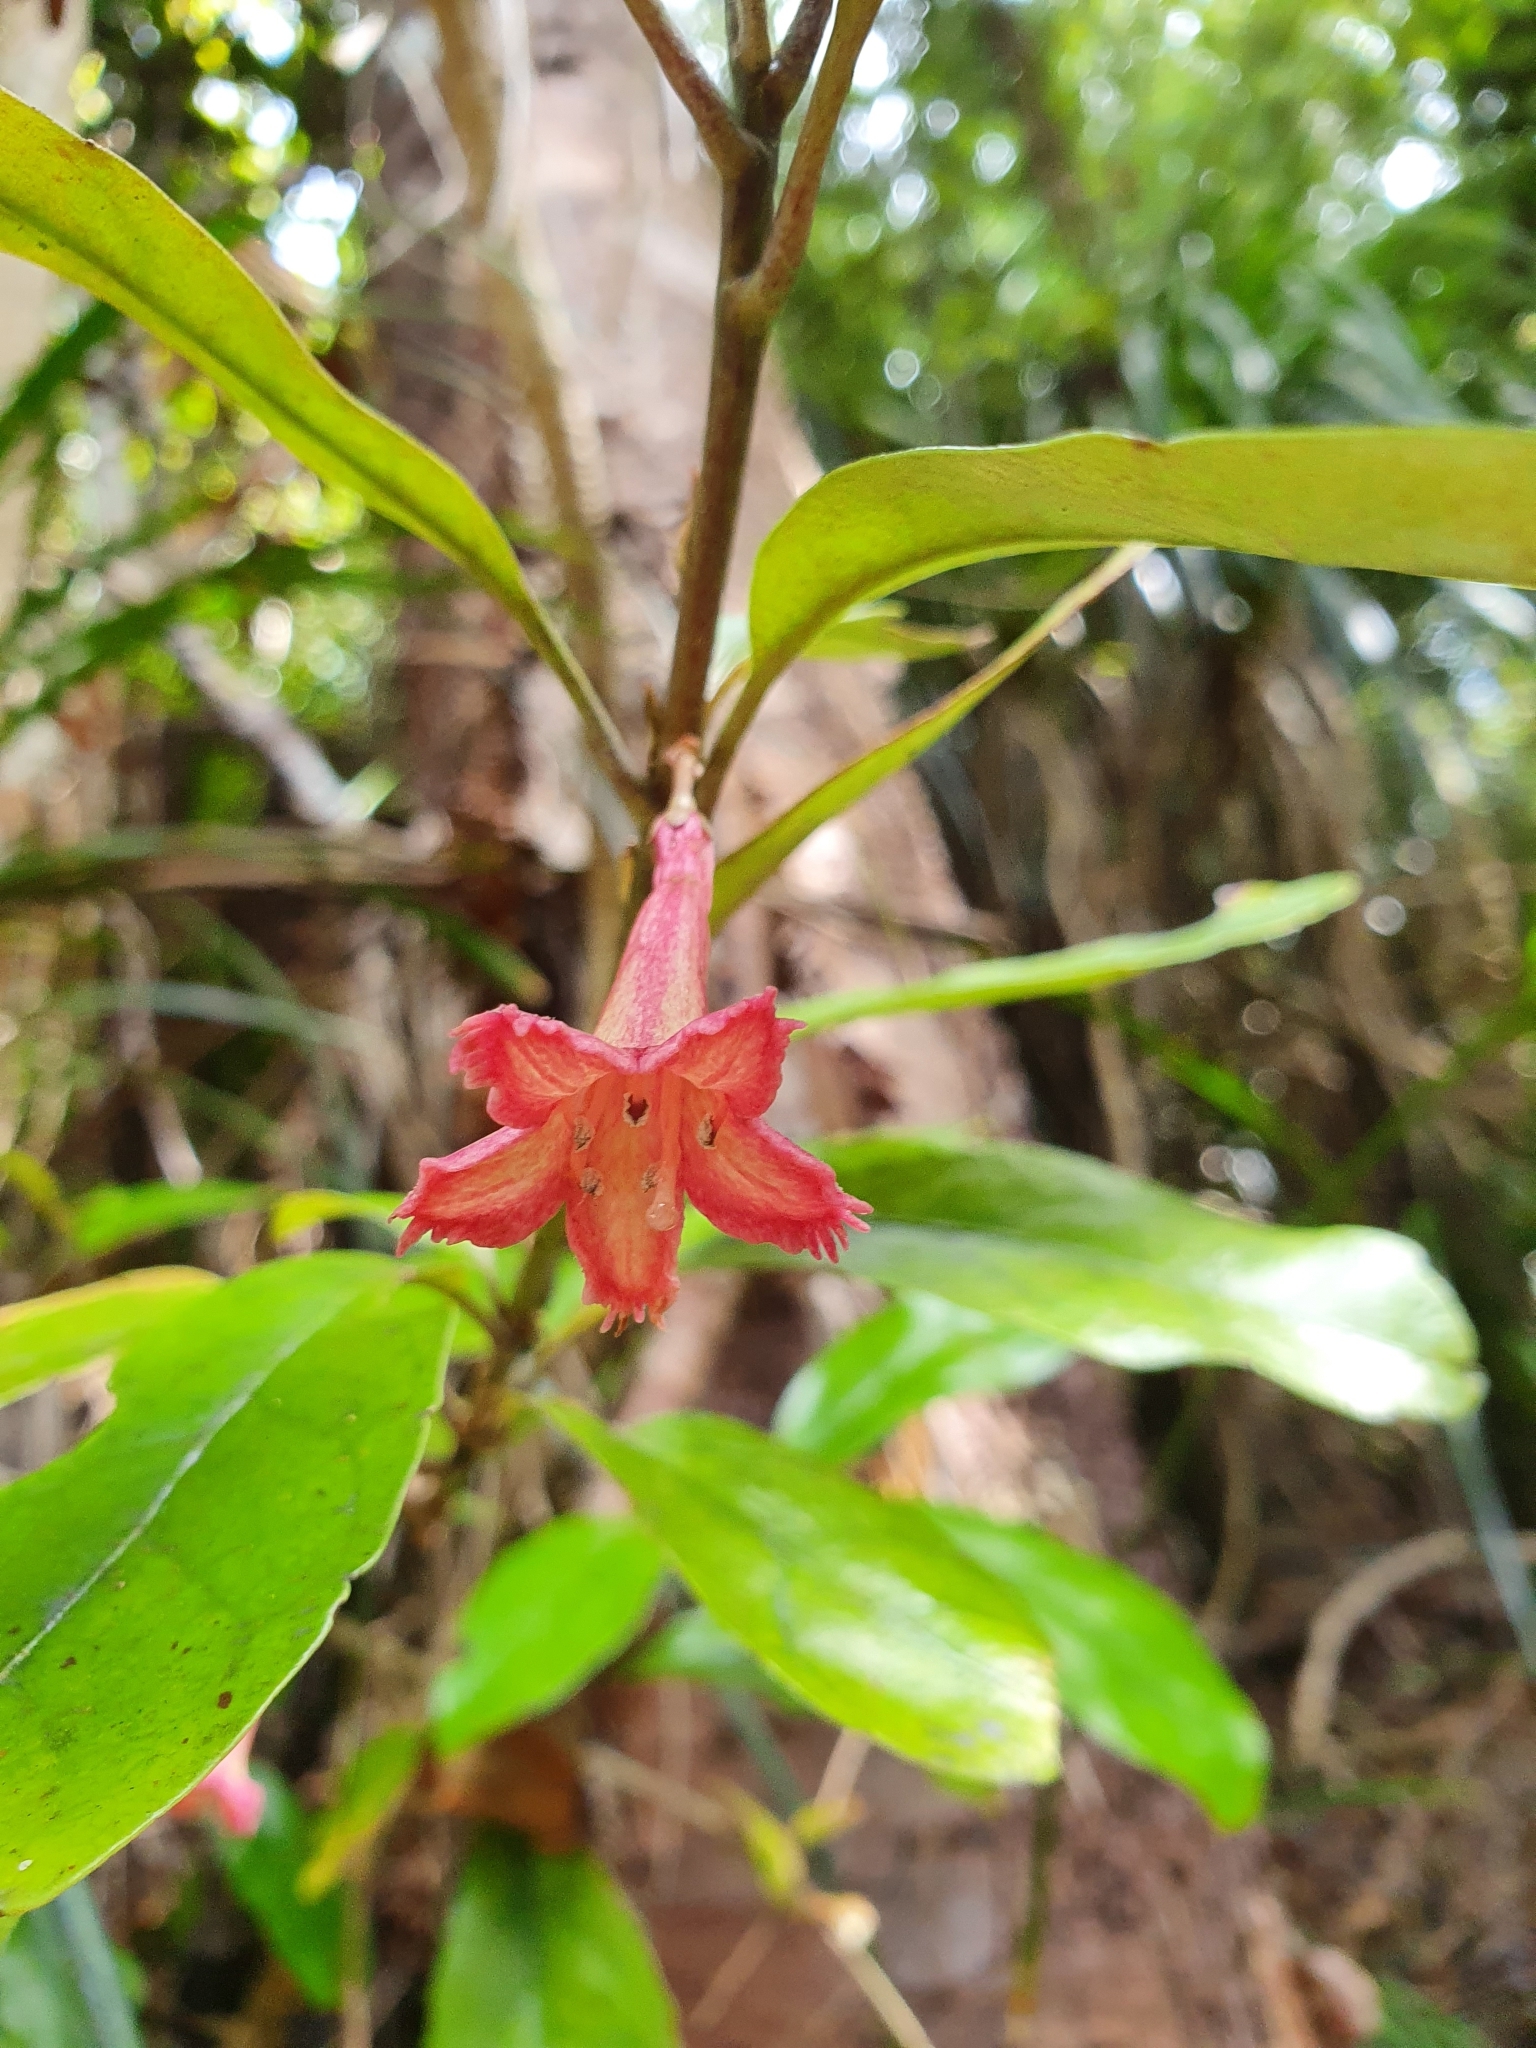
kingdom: Plantae
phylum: Tracheophyta
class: Magnoliopsida
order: Asterales
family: Alseuosmiaceae
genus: Alseuosmia
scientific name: Alseuosmia macrophylla
